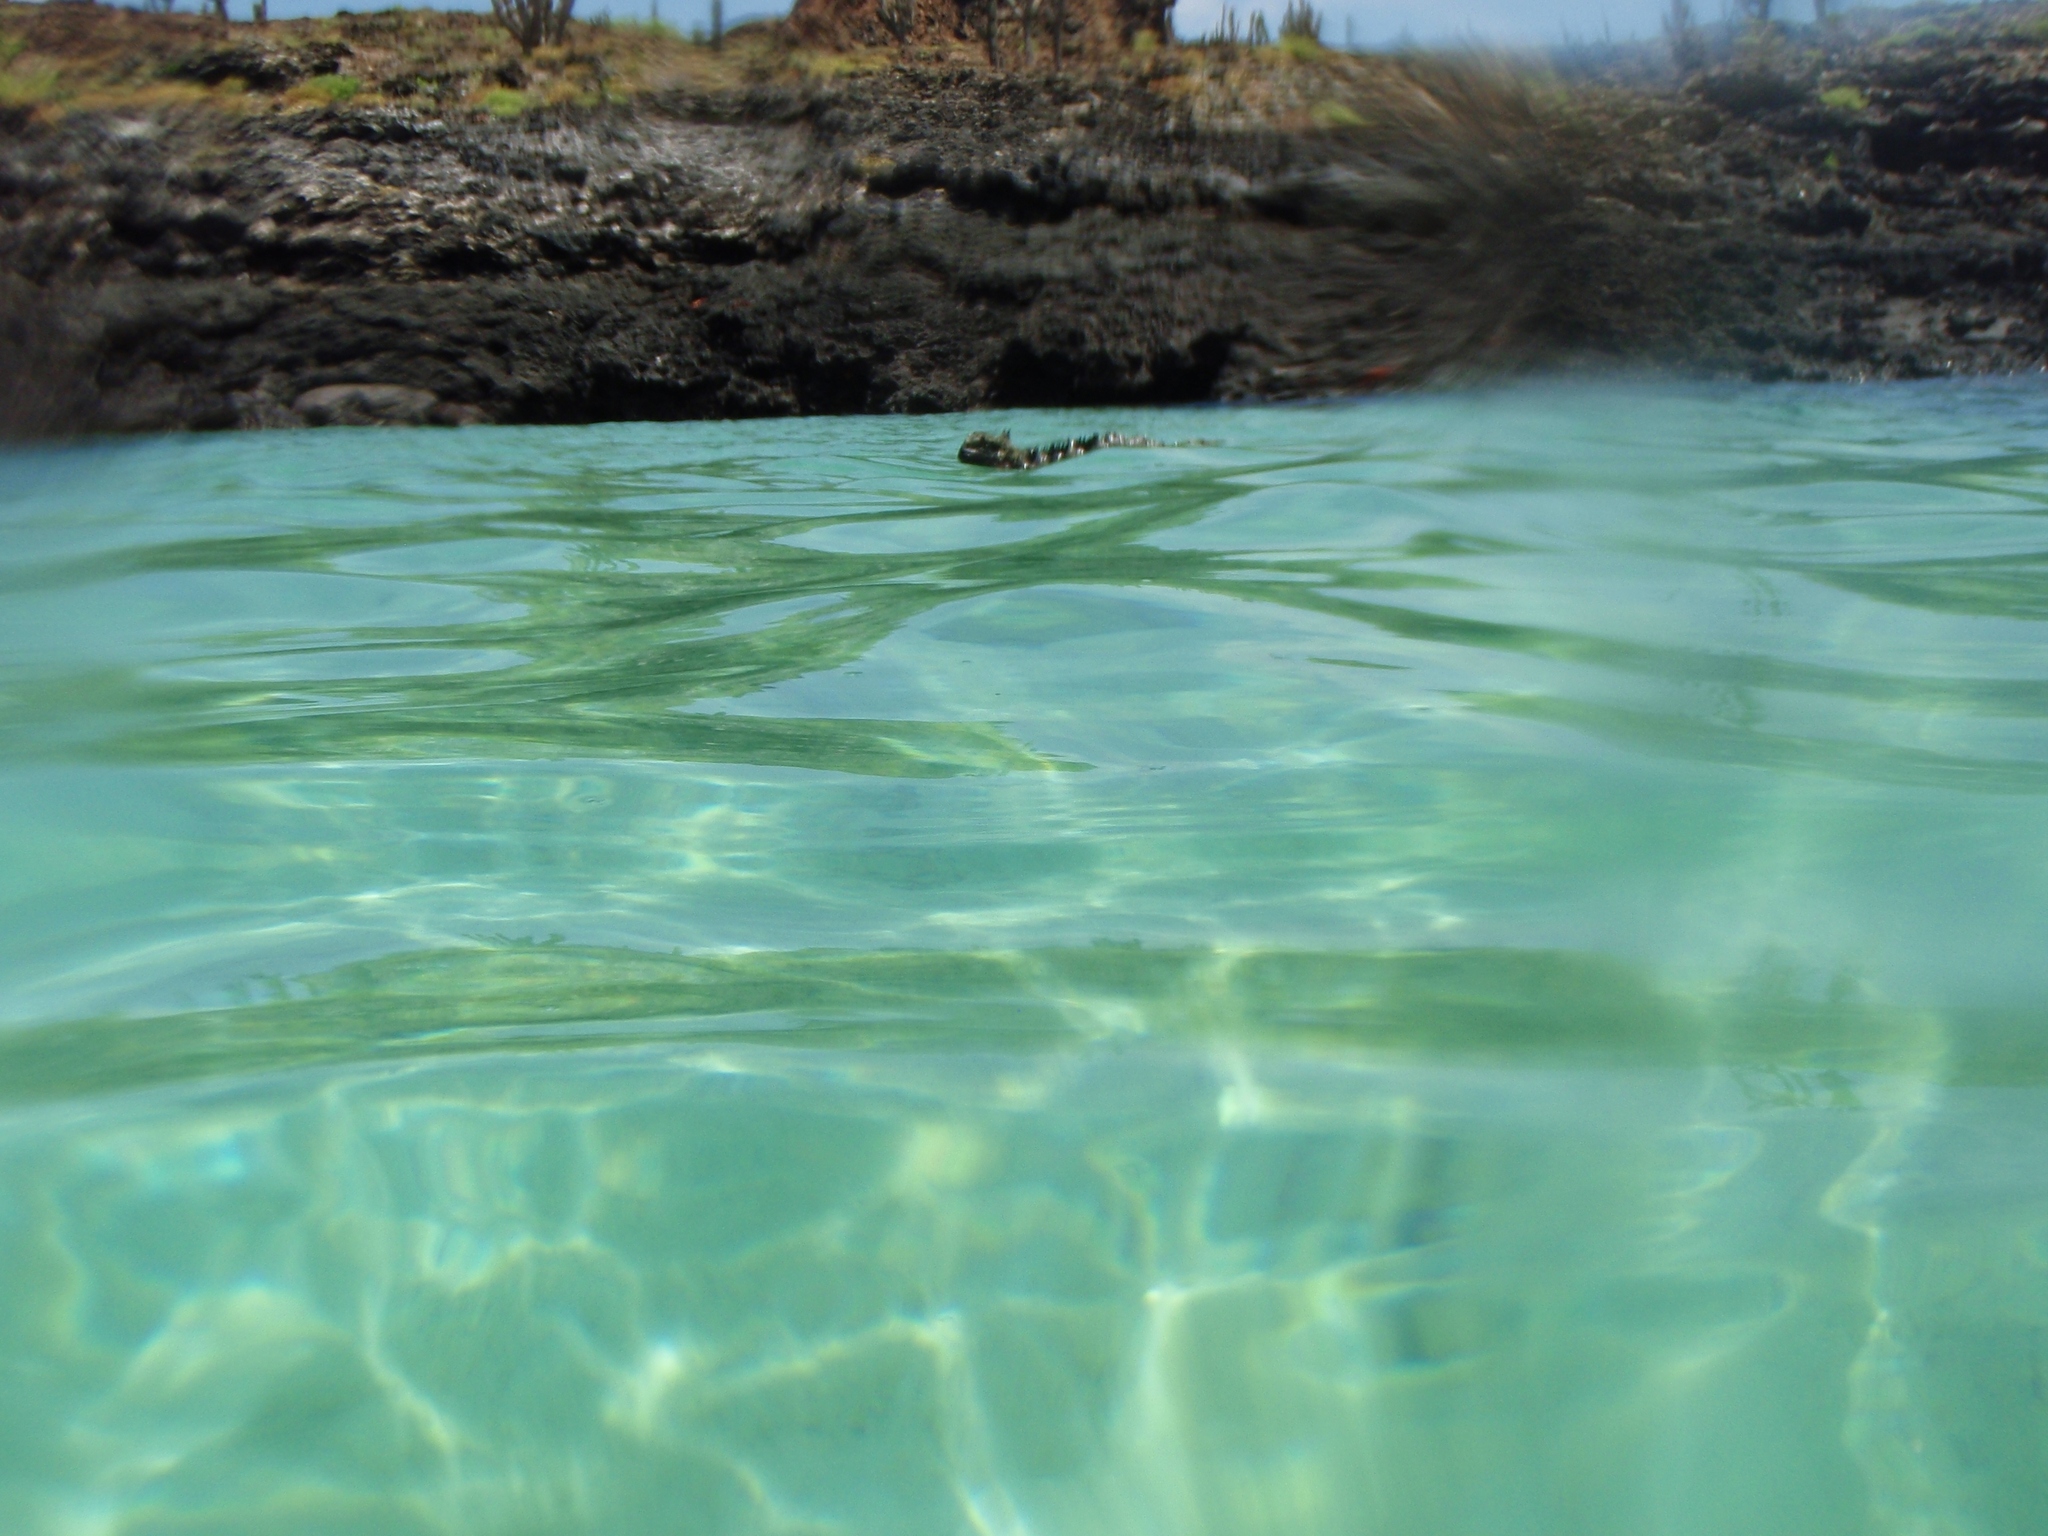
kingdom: Animalia
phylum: Chordata
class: Squamata
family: Iguanidae
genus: Amblyrhynchus
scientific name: Amblyrhynchus cristatus
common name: Marine iguana
